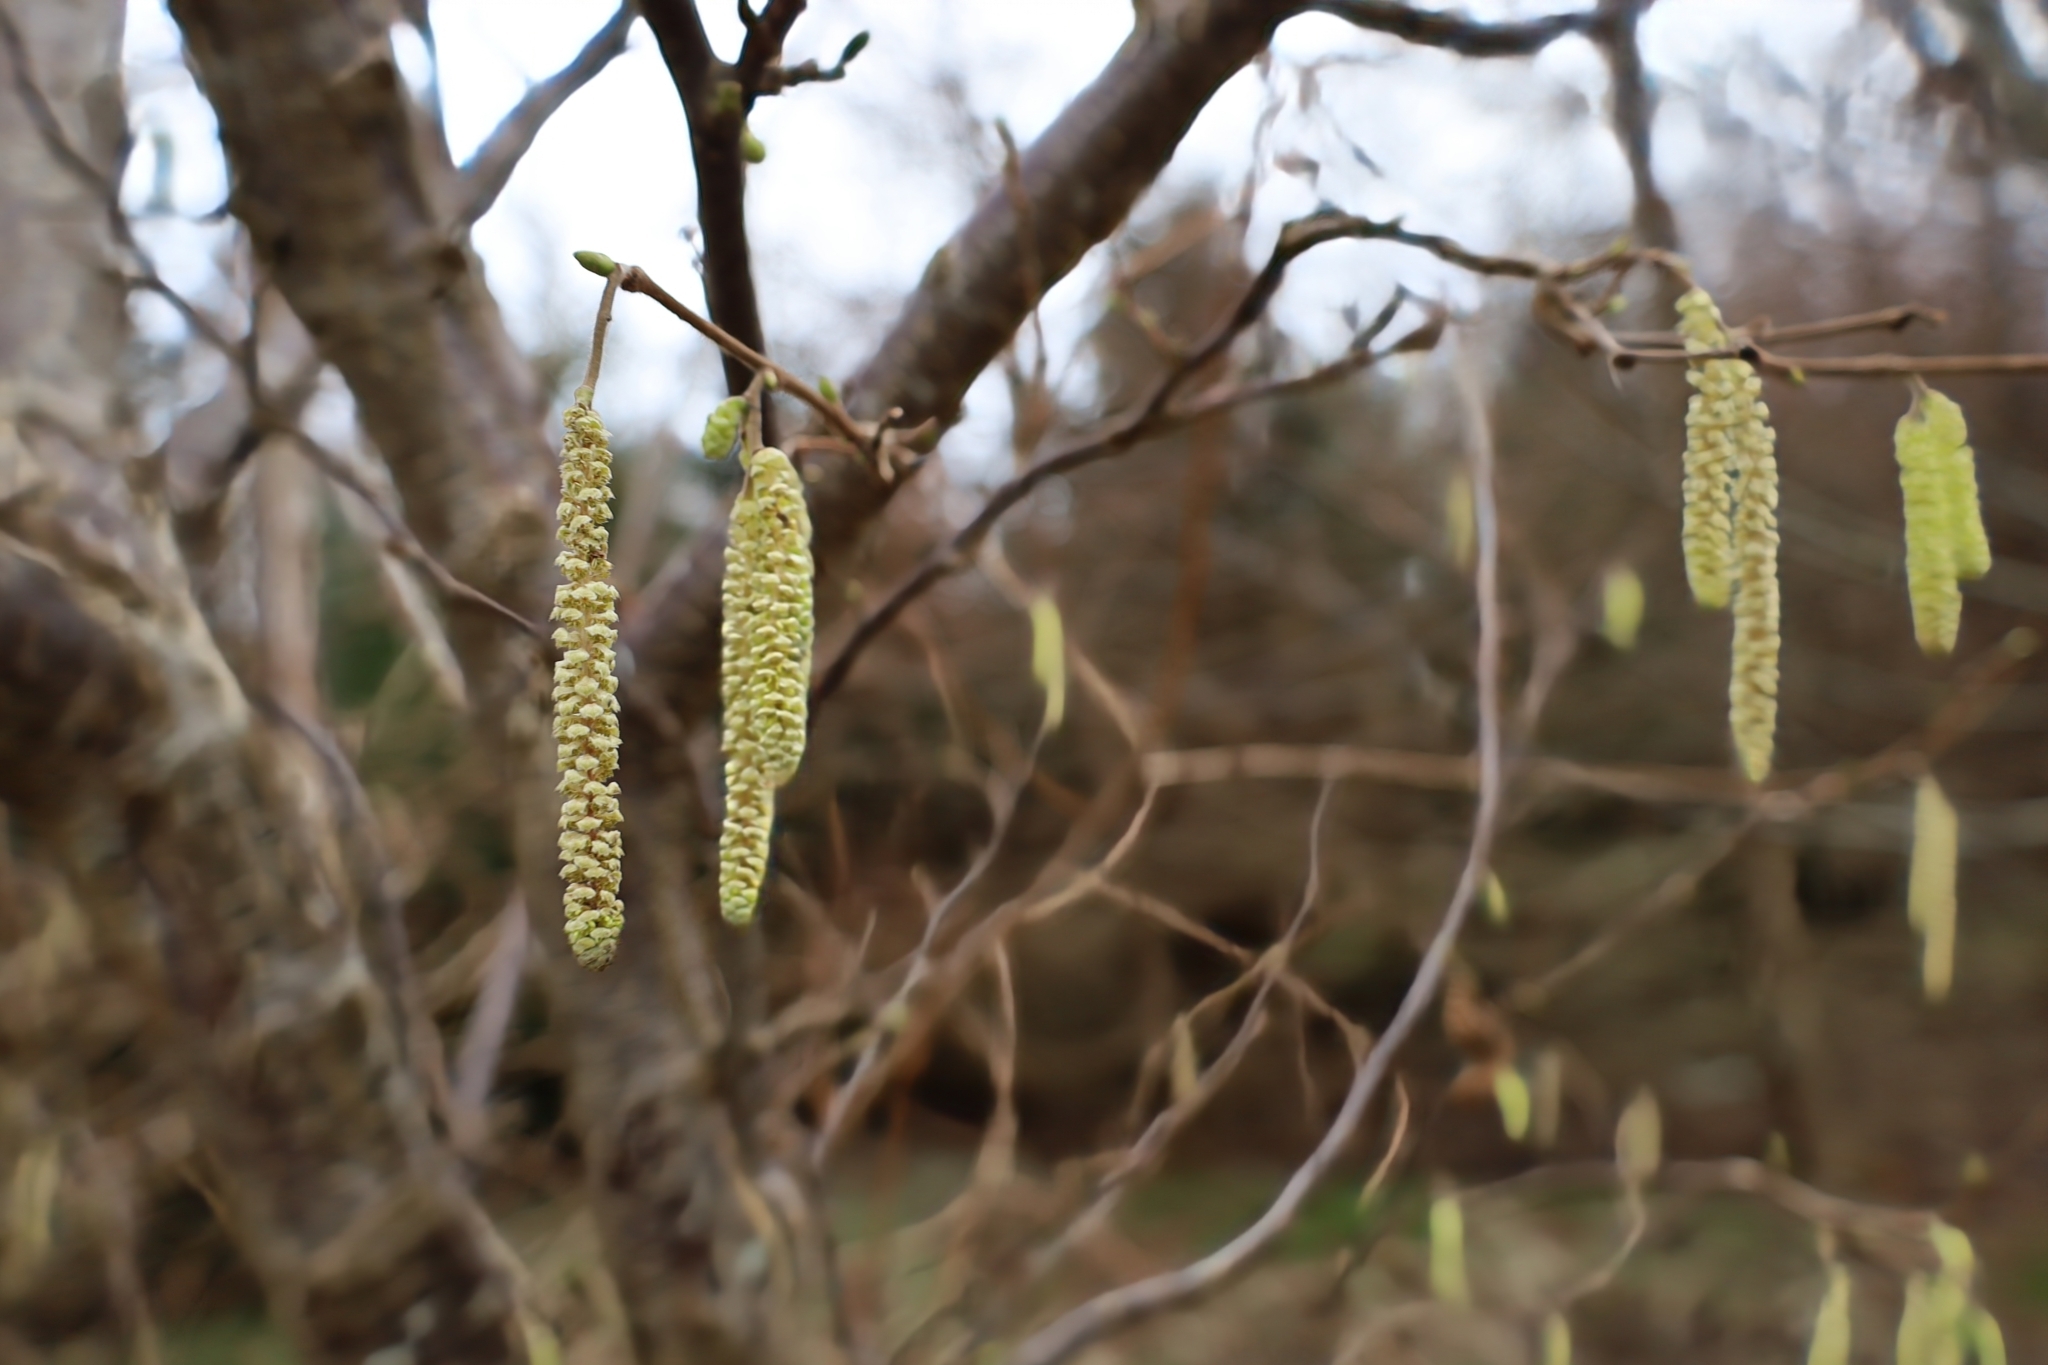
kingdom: Plantae
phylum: Tracheophyta
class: Magnoliopsida
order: Fagales
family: Betulaceae
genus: Corylus
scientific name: Corylus avellana
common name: European hazel
